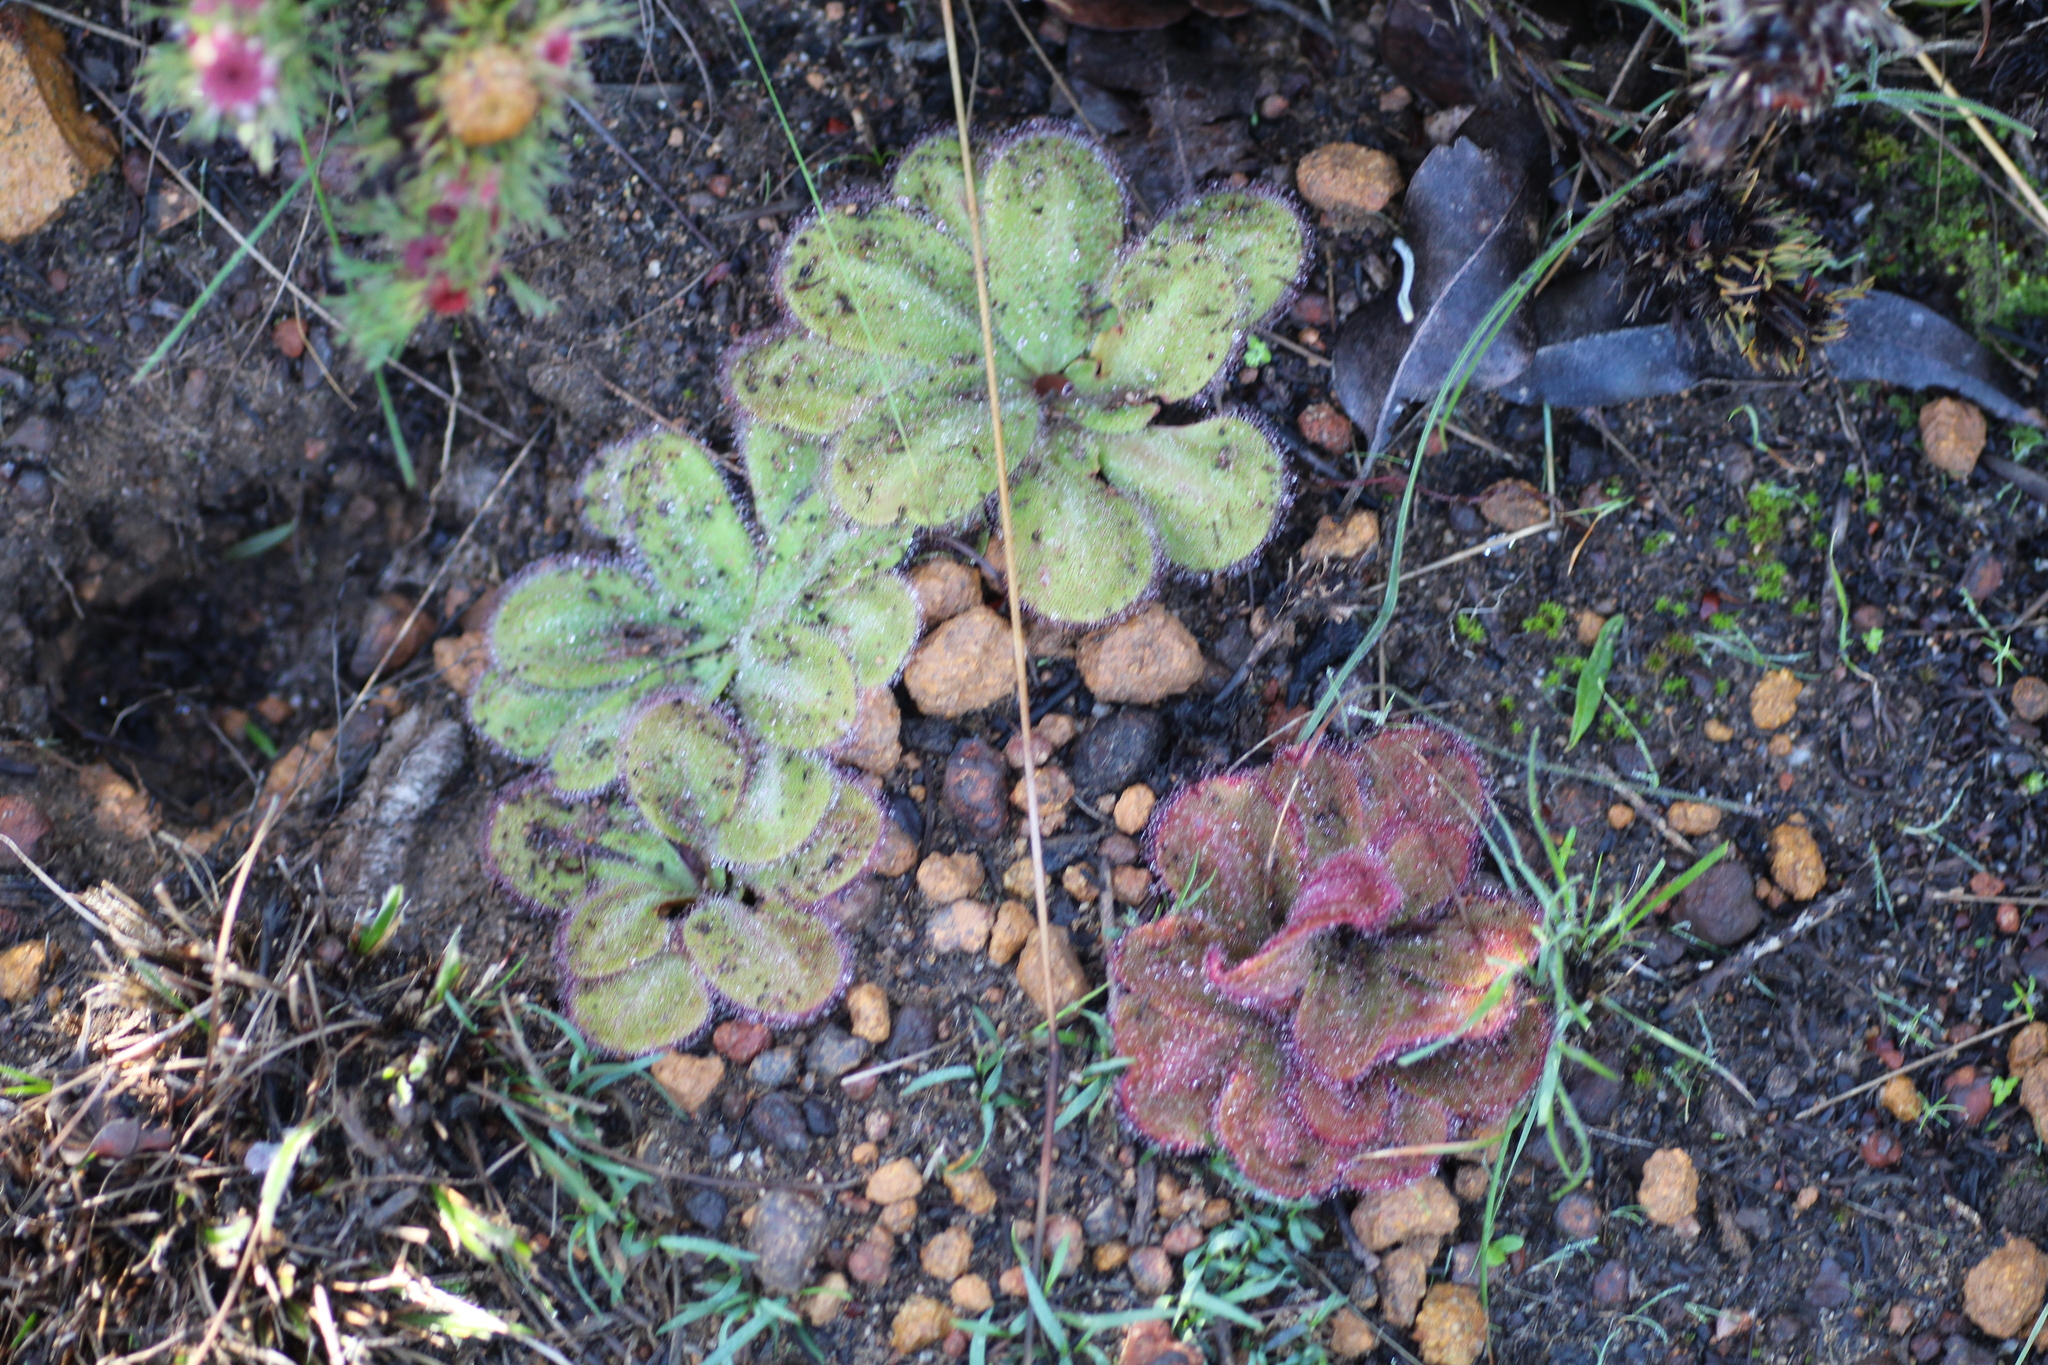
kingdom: Plantae
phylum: Tracheophyta
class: Magnoliopsida
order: Caryophyllales
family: Droseraceae
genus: Drosera
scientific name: Drosera erythrorhiza
